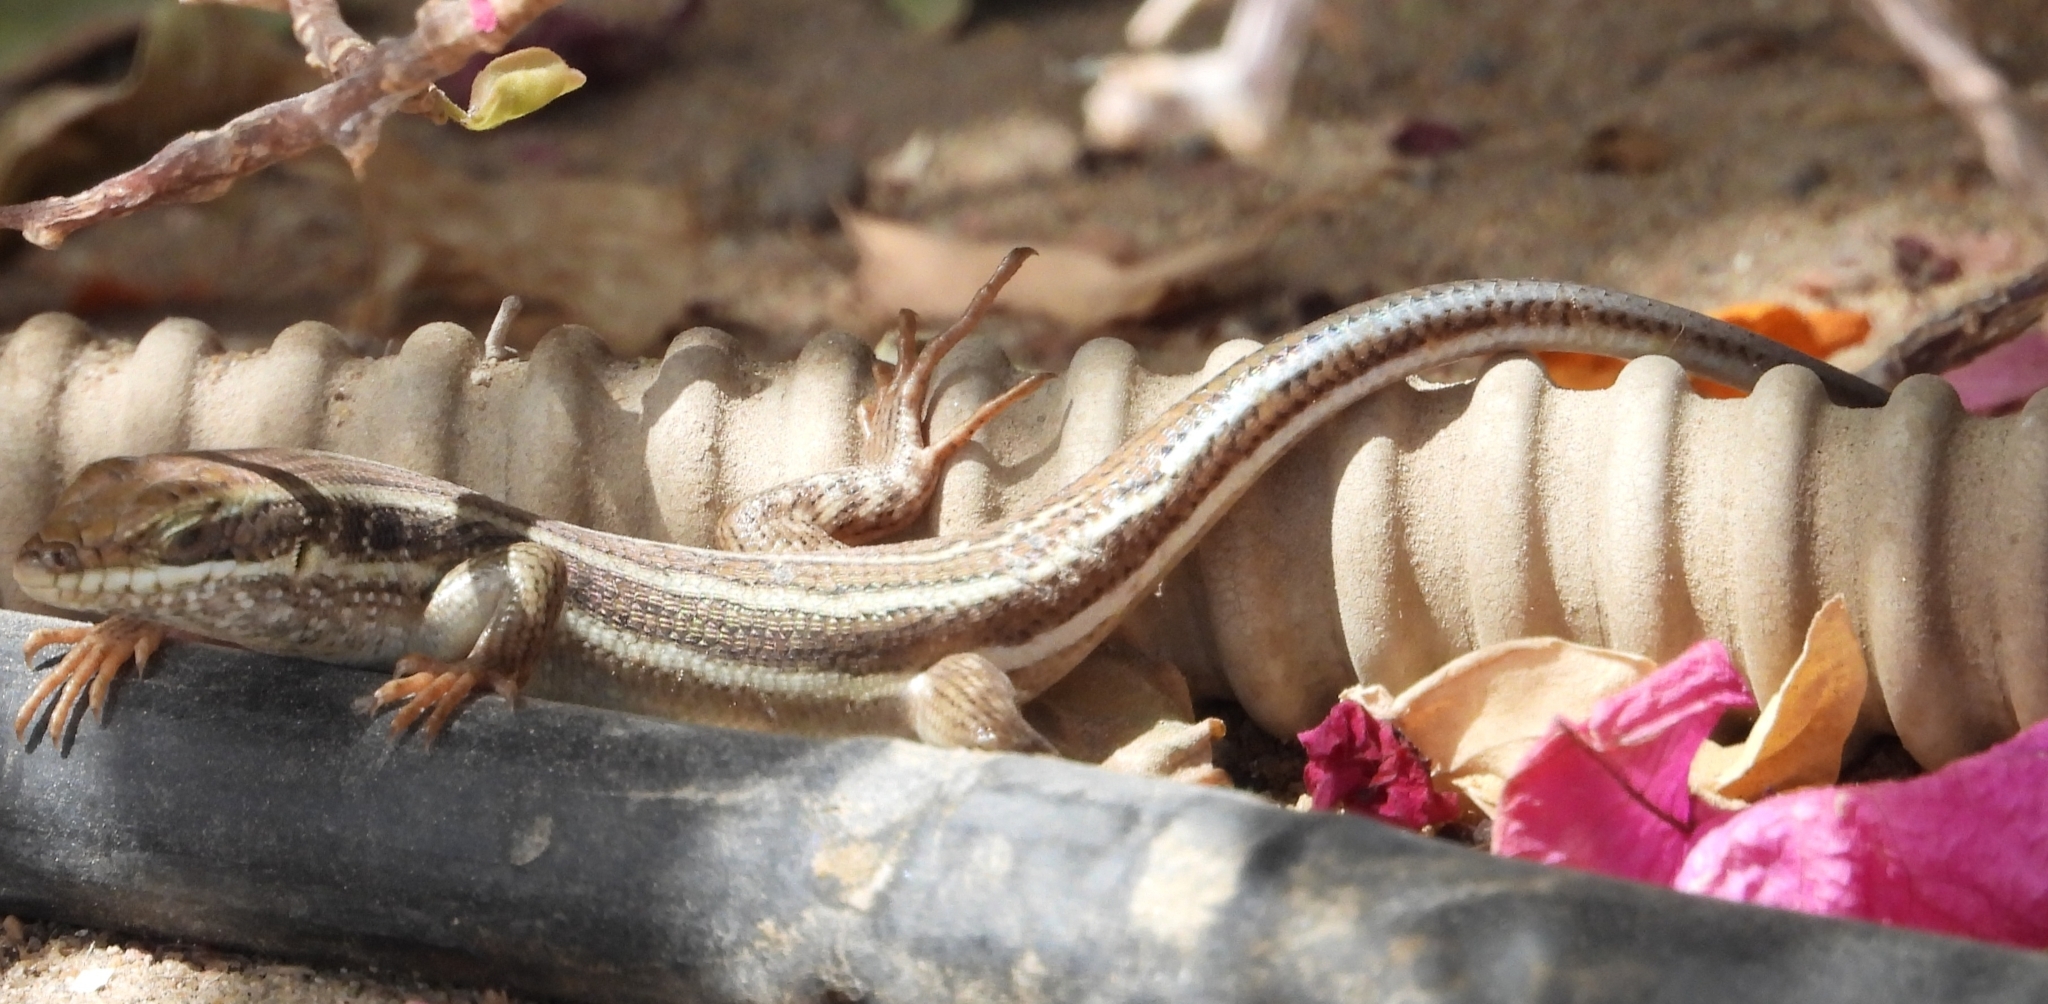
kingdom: Animalia
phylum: Chordata
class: Squamata
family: Scincidae
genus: Trachylepis
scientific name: Trachylepis quinquetaeniata
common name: African five-lined skink
